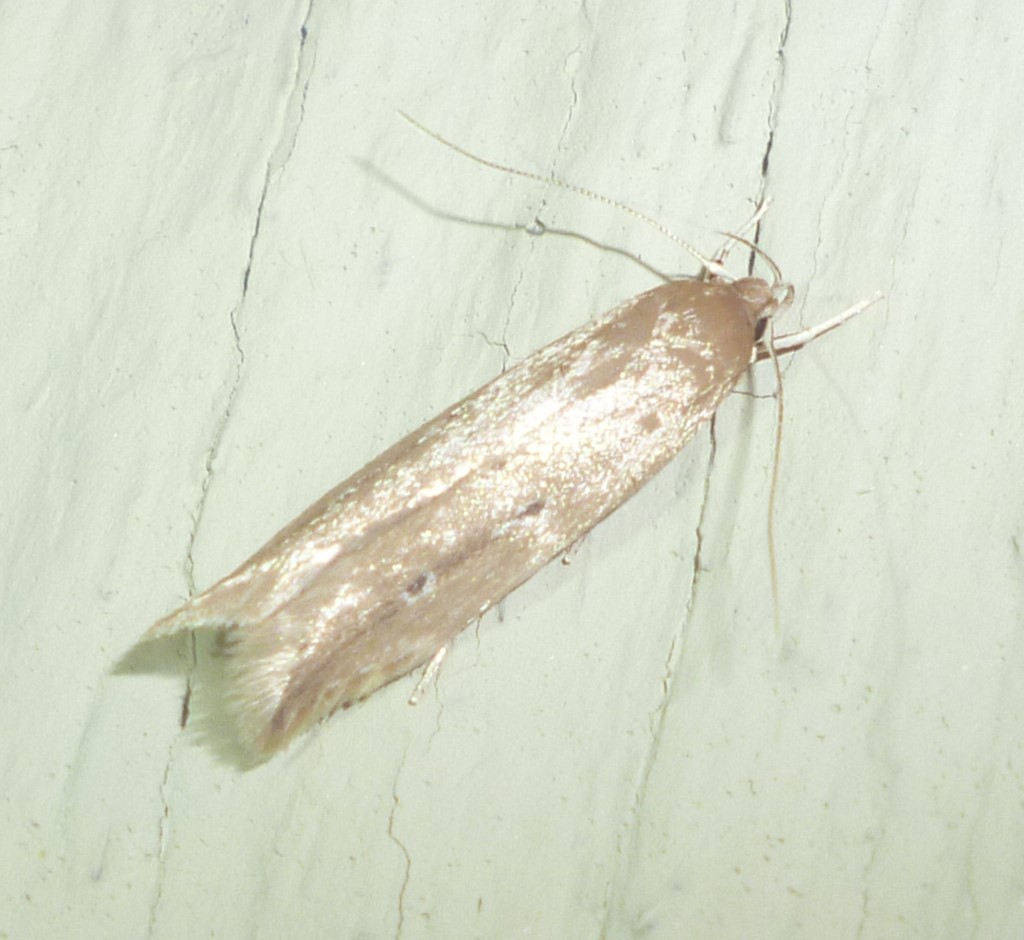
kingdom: Animalia
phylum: Arthropoda
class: Insecta
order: Lepidoptera
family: Cosmopterigidae
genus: Limnaecia
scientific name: Limnaecia phragmitella
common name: Bulrush cosmet
